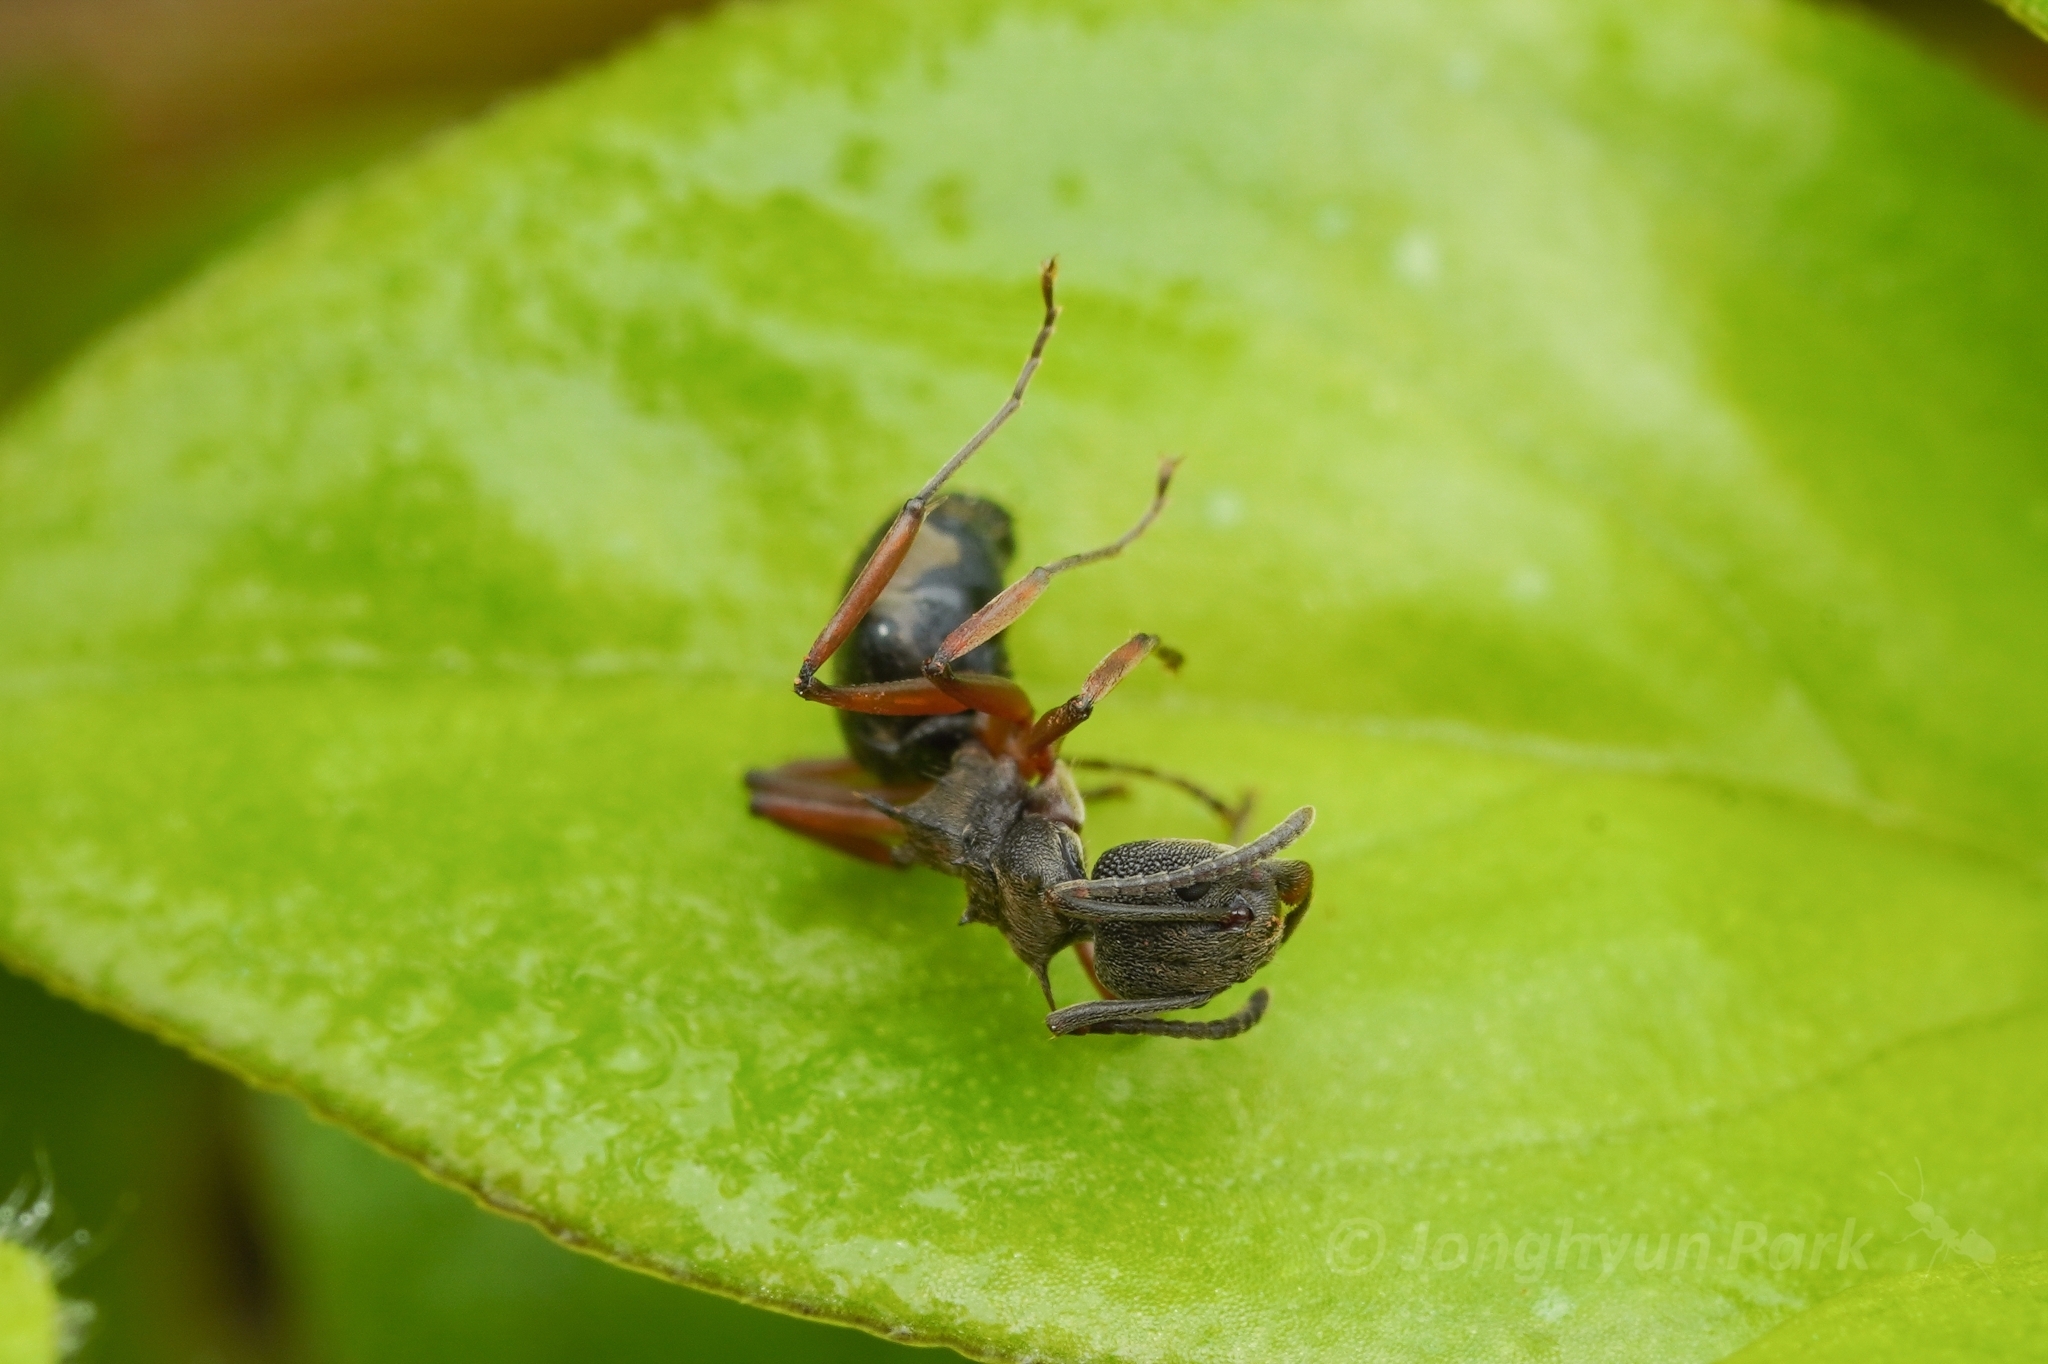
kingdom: Animalia
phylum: Arthropoda
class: Insecta
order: Hymenoptera
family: Formicidae
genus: Dolichoderus
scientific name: Dolichoderus septemspinosus
